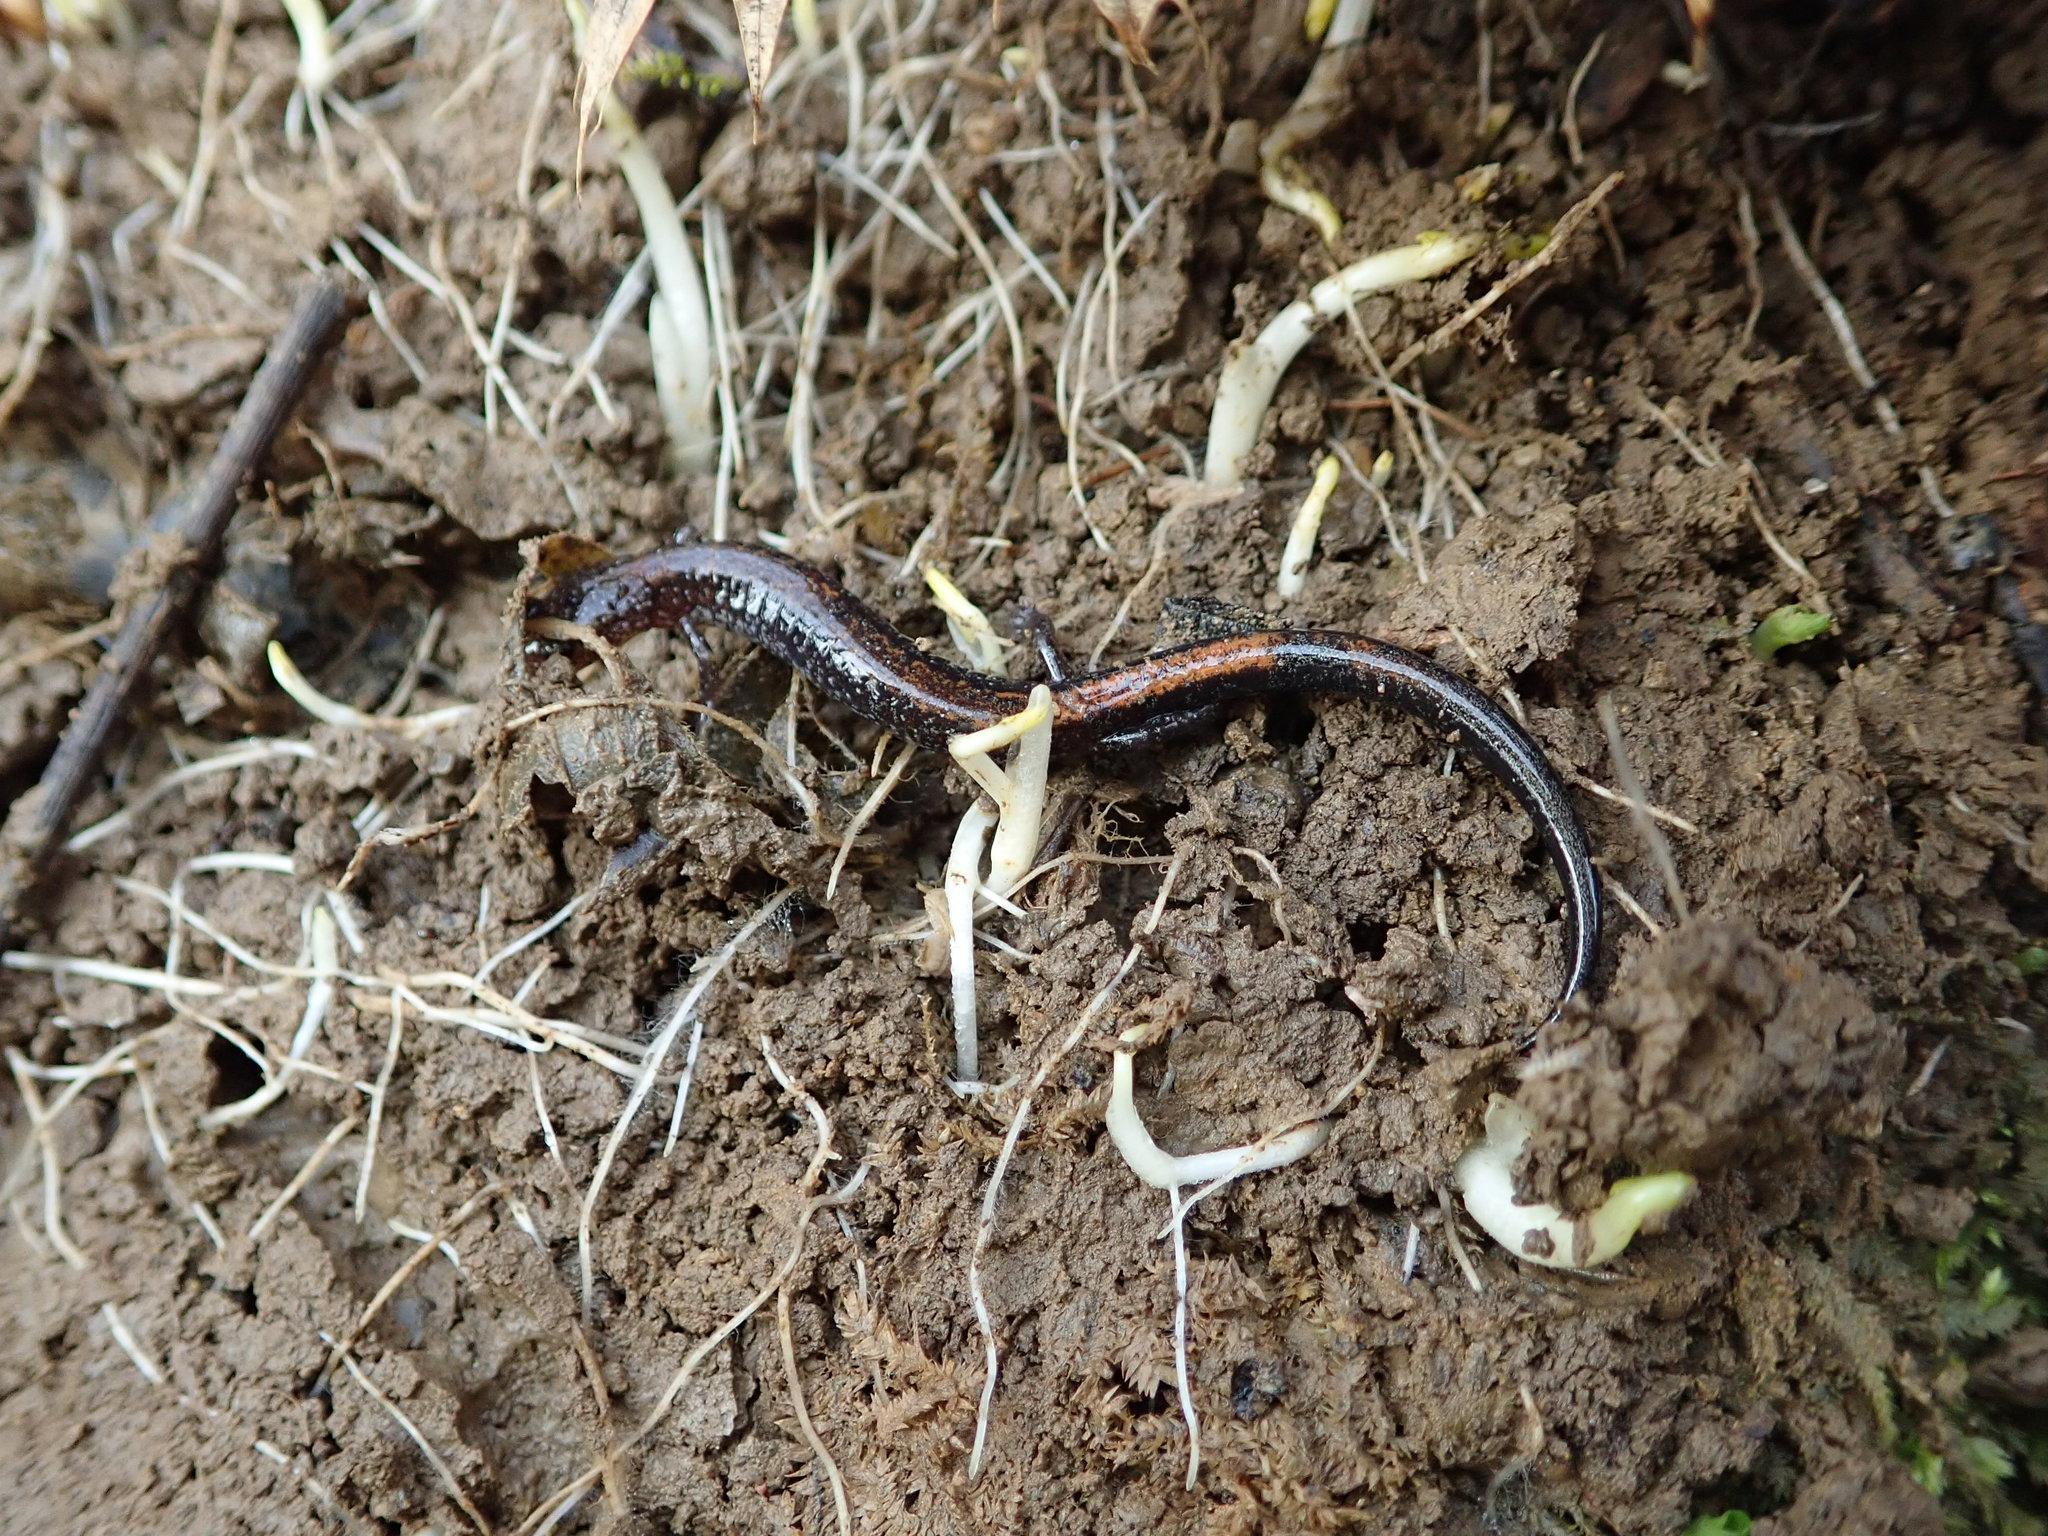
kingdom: Animalia
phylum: Chordata
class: Amphibia
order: Caudata
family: Plethodontidae
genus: Plethodon
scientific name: Plethodon cinereus
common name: Redback salamander
